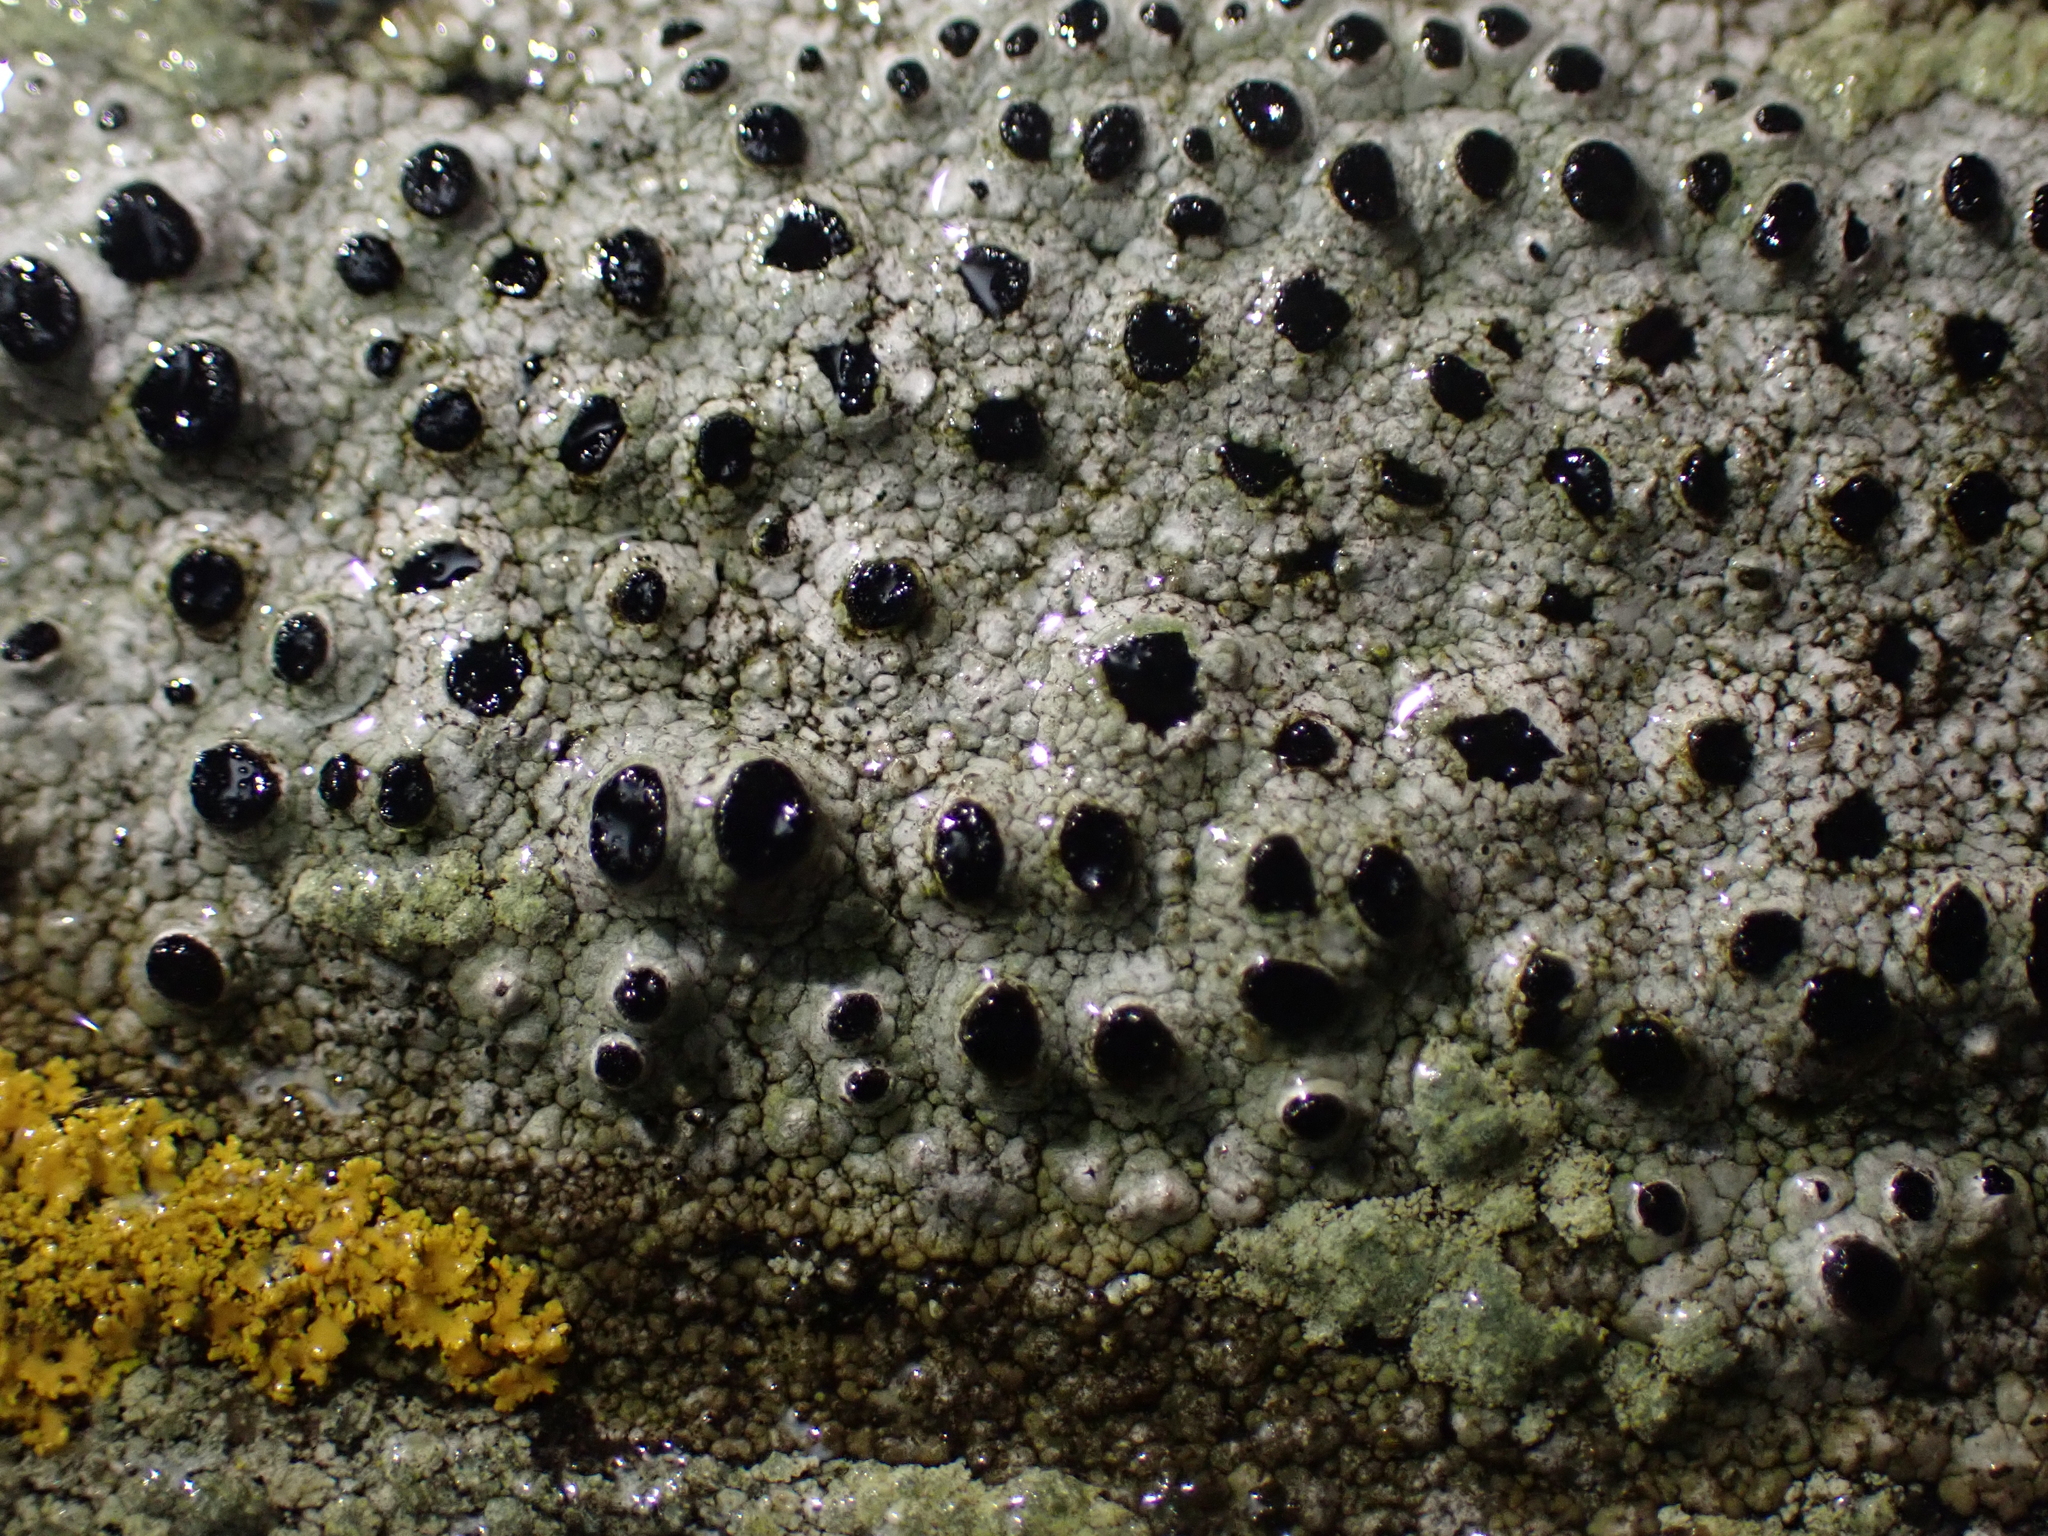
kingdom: Fungi
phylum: Ascomycota
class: Lecanoromycetes
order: Caliciales
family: Caliciaceae
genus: Pseudothelomma
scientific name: Pseudothelomma occidentale
